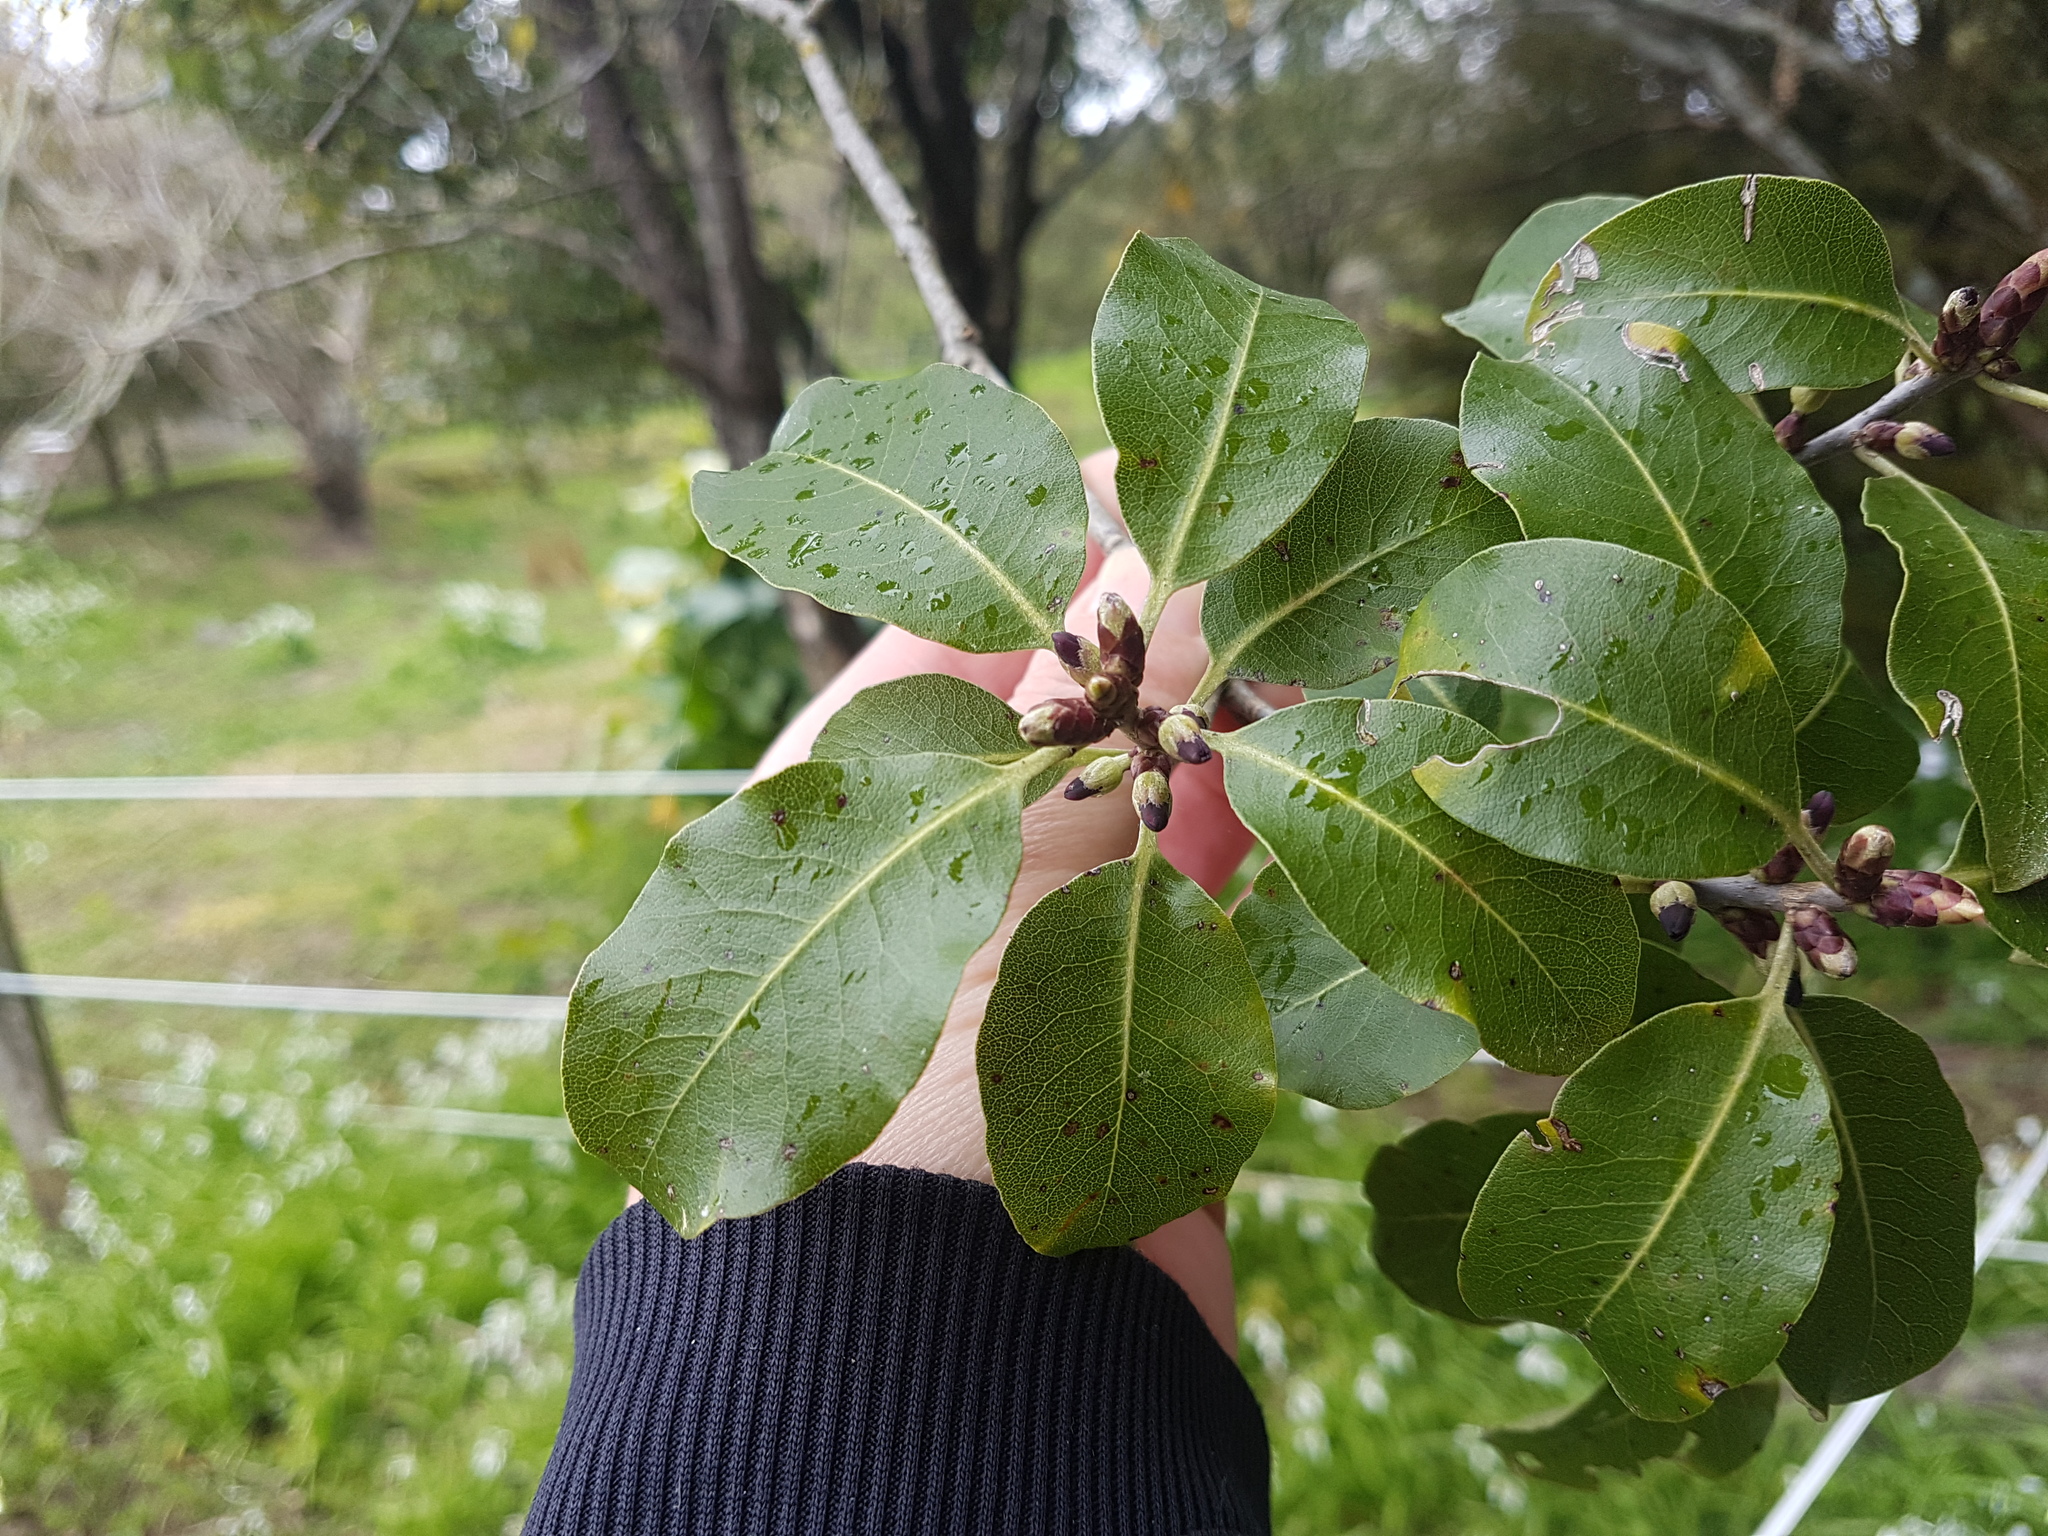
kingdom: Plantae
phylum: Tracheophyta
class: Magnoliopsida
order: Apiales
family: Pittosporaceae
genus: Pittosporum
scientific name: Pittosporum tenuifolium
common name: Kohuhu
